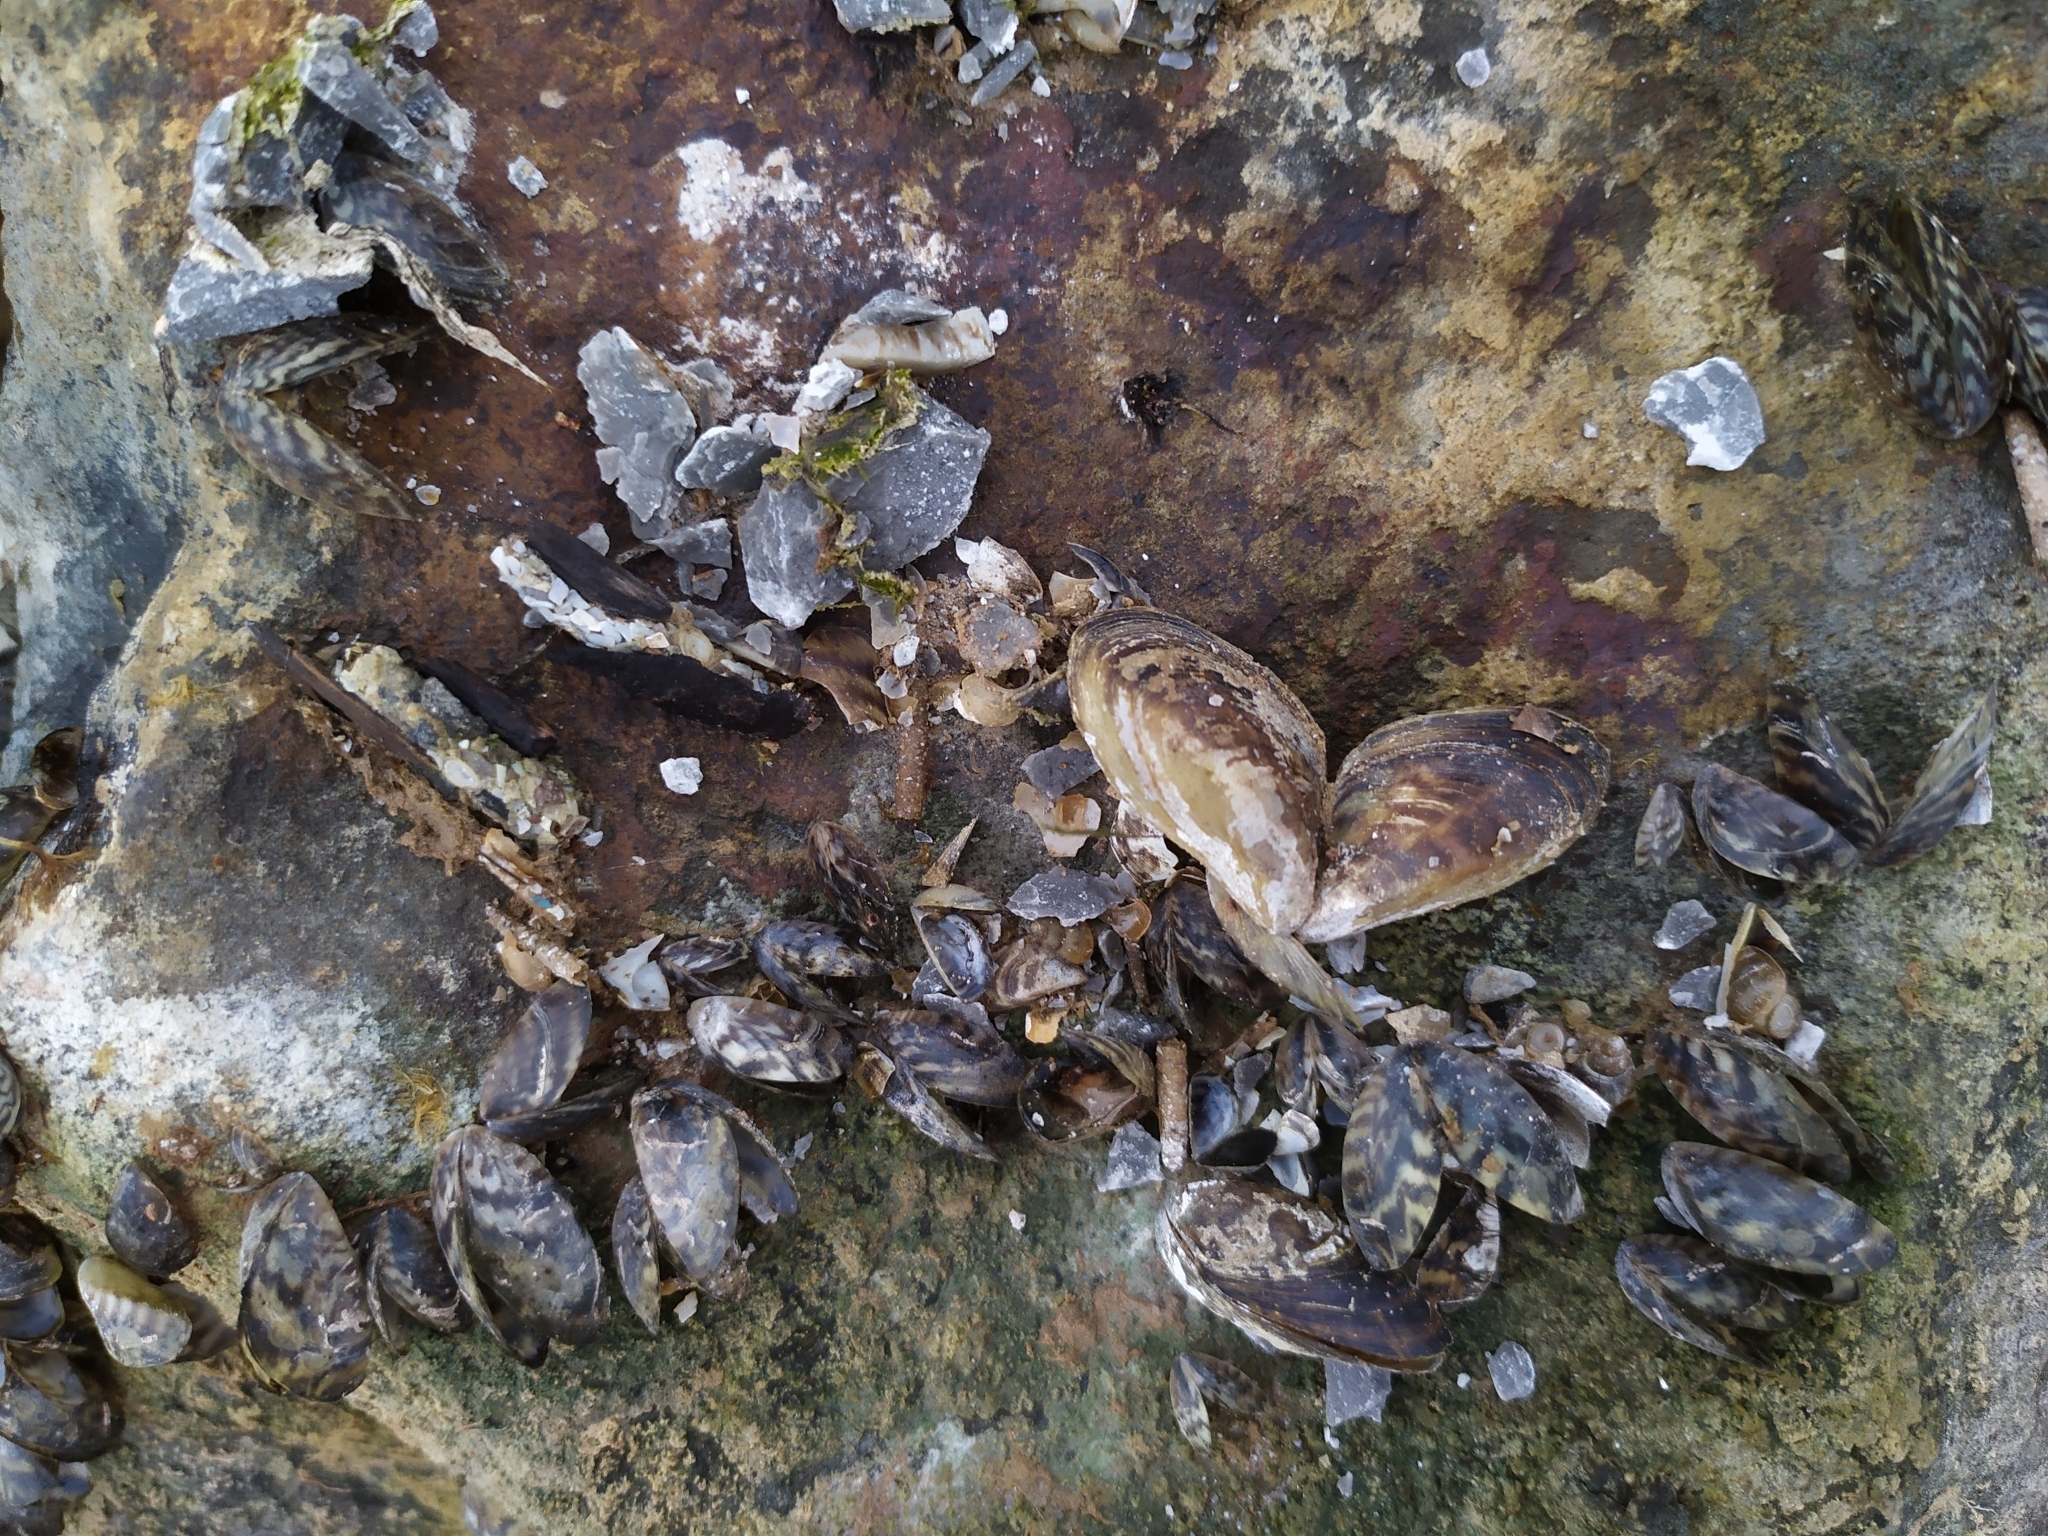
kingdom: Animalia
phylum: Mollusca
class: Bivalvia
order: Myida
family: Dreissenidae
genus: Dreissena
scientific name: Dreissena polymorpha
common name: Zebra mussel
